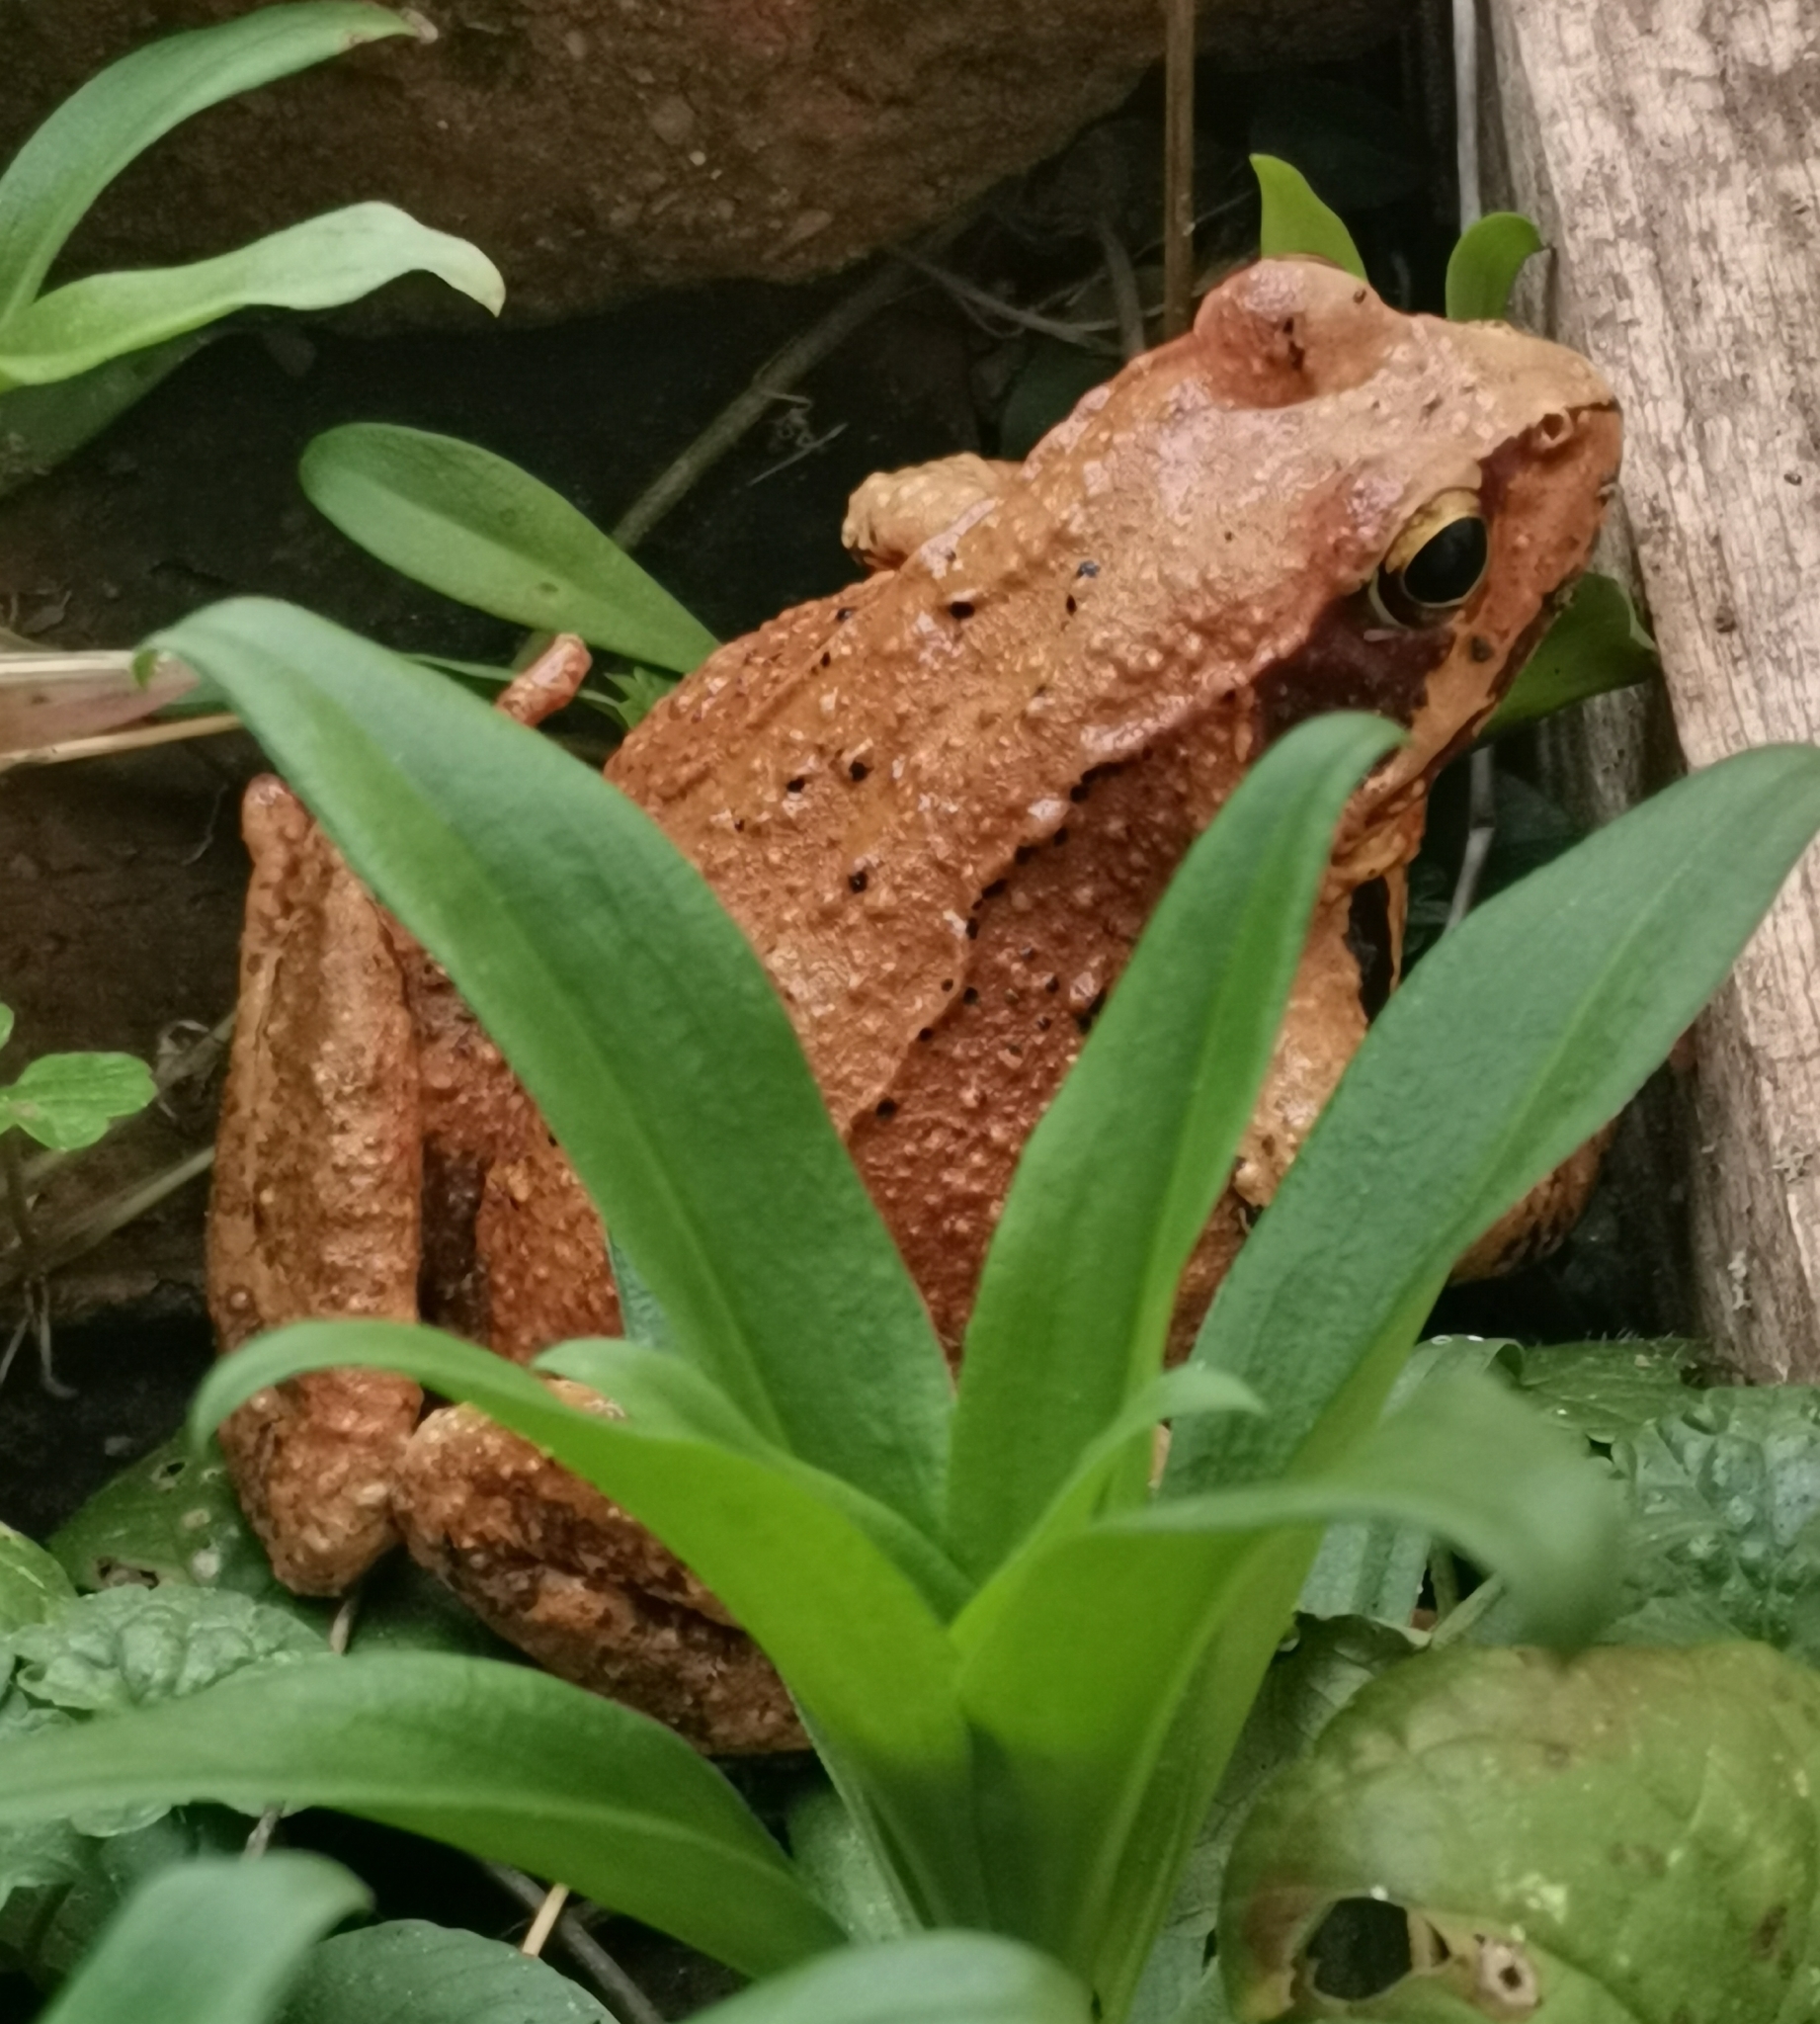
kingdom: Animalia
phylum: Chordata
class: Amphibia
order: Anura
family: Ranidae
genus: Rana
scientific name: Rana temporaria
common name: Common frog
